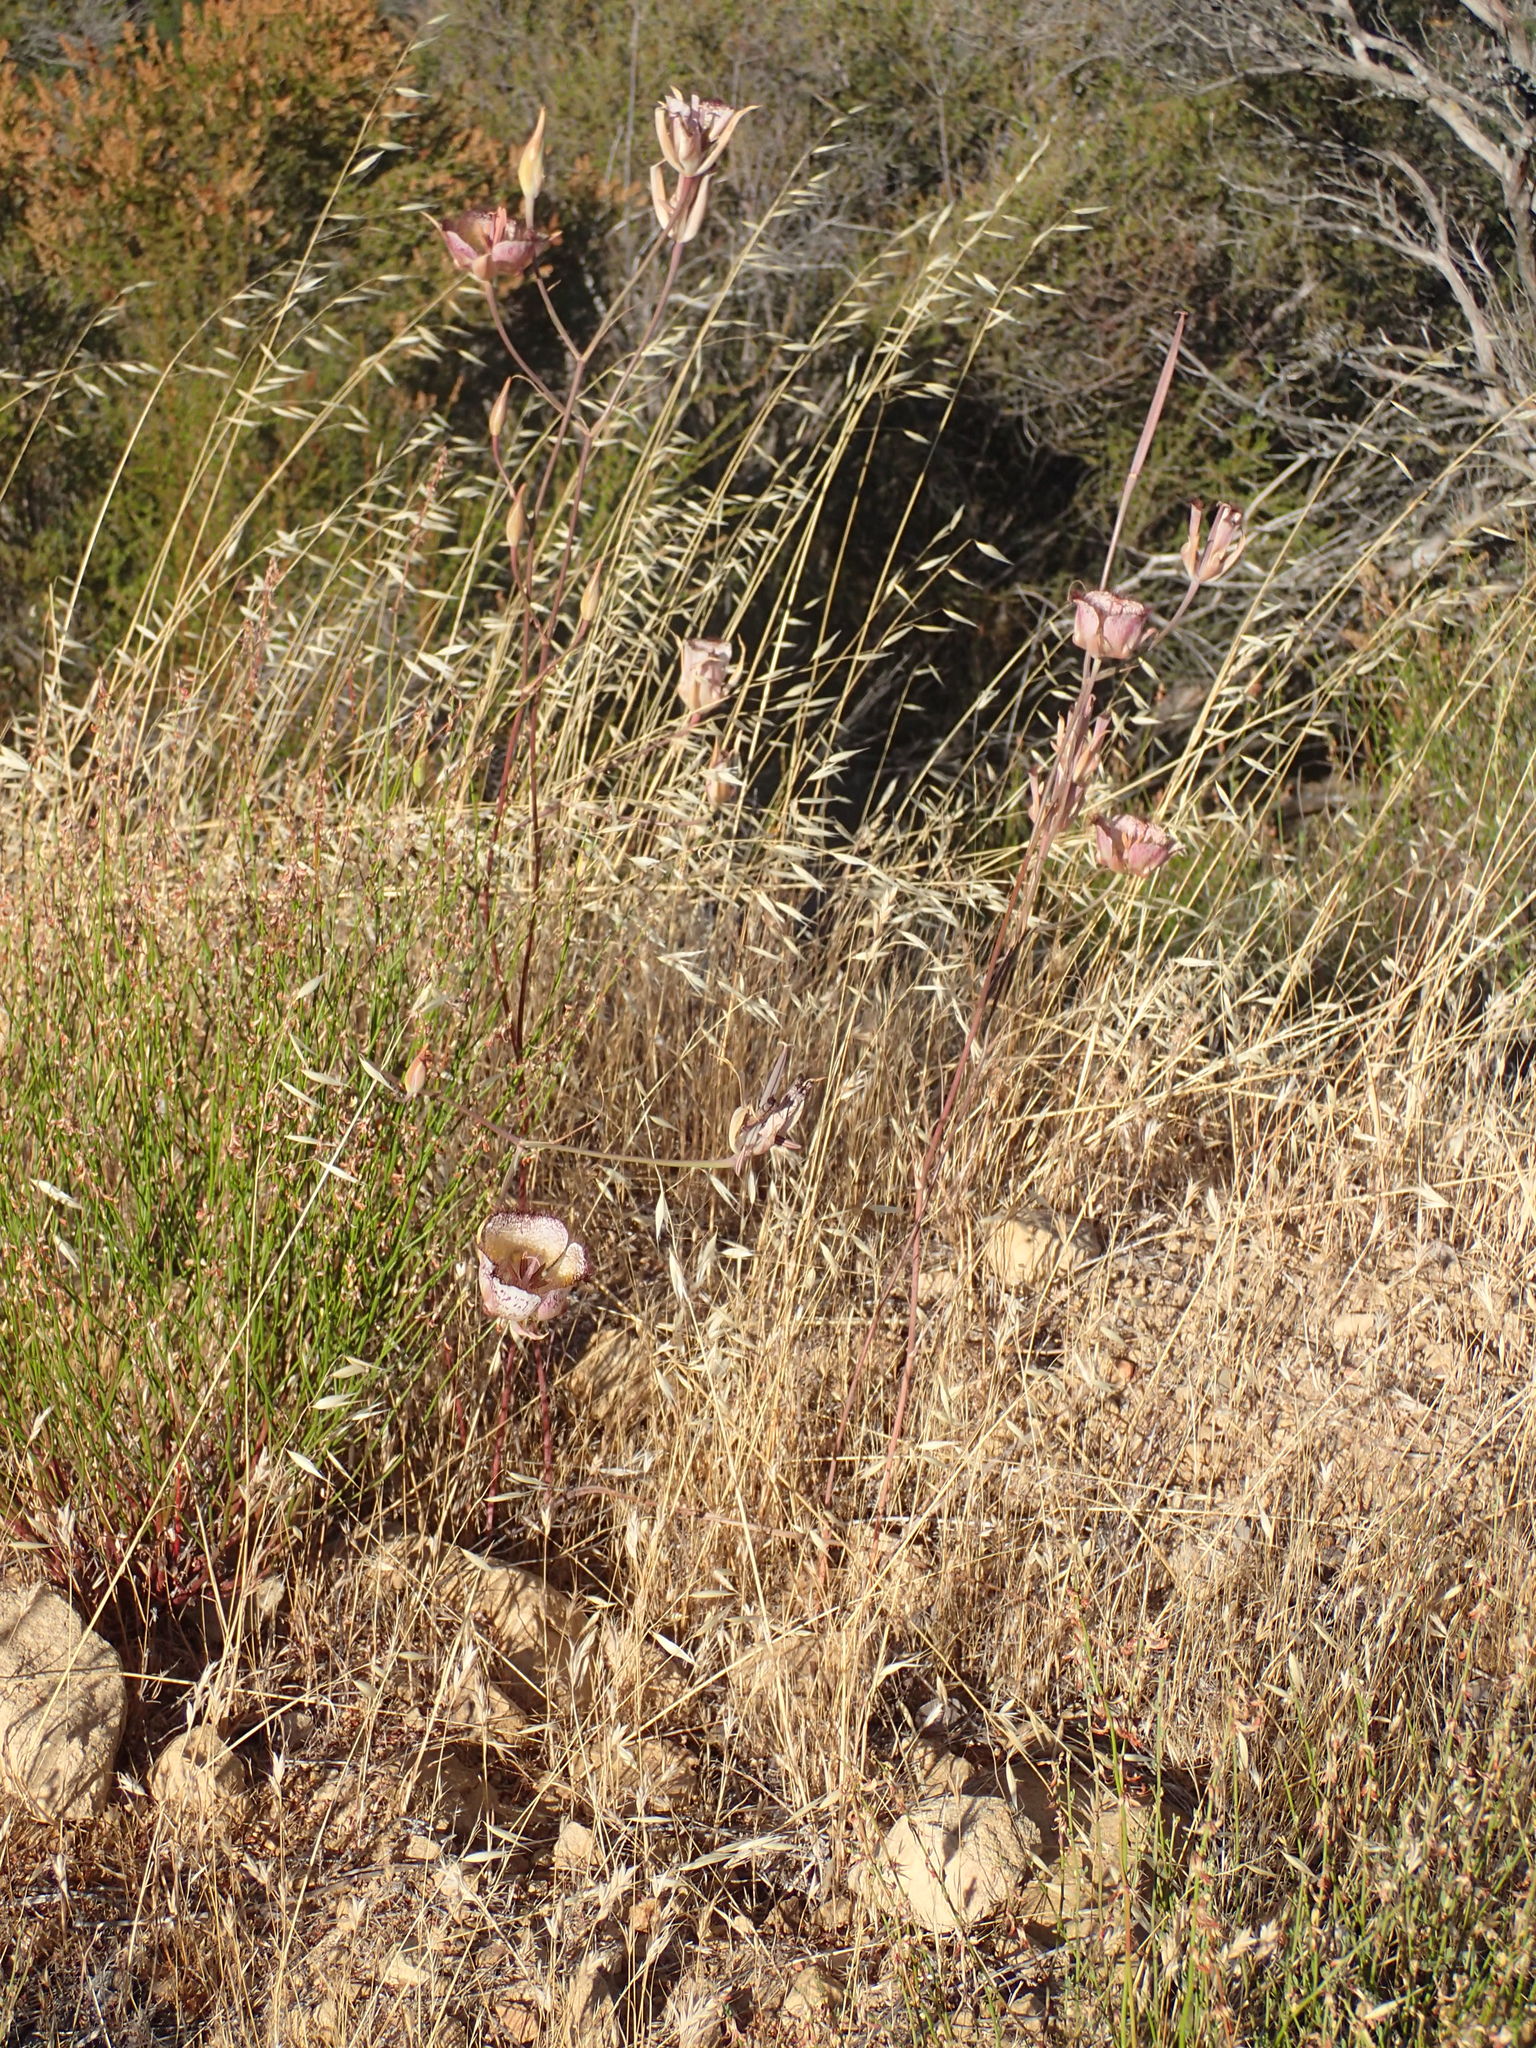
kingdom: Plantae
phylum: Tracheophyta
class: Liliopsida
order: Liliales
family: Liliaceae
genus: Calochortus
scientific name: Calochortus fimbriatus
